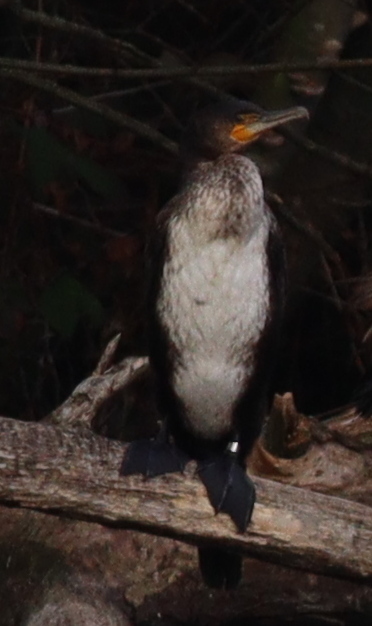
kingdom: Animalia
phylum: Chordata
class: Aves
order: Suliformes
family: Phalacrocoracidae
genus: Phalacrocorax
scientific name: Phalacrocorax carbo
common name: Great cormorant
